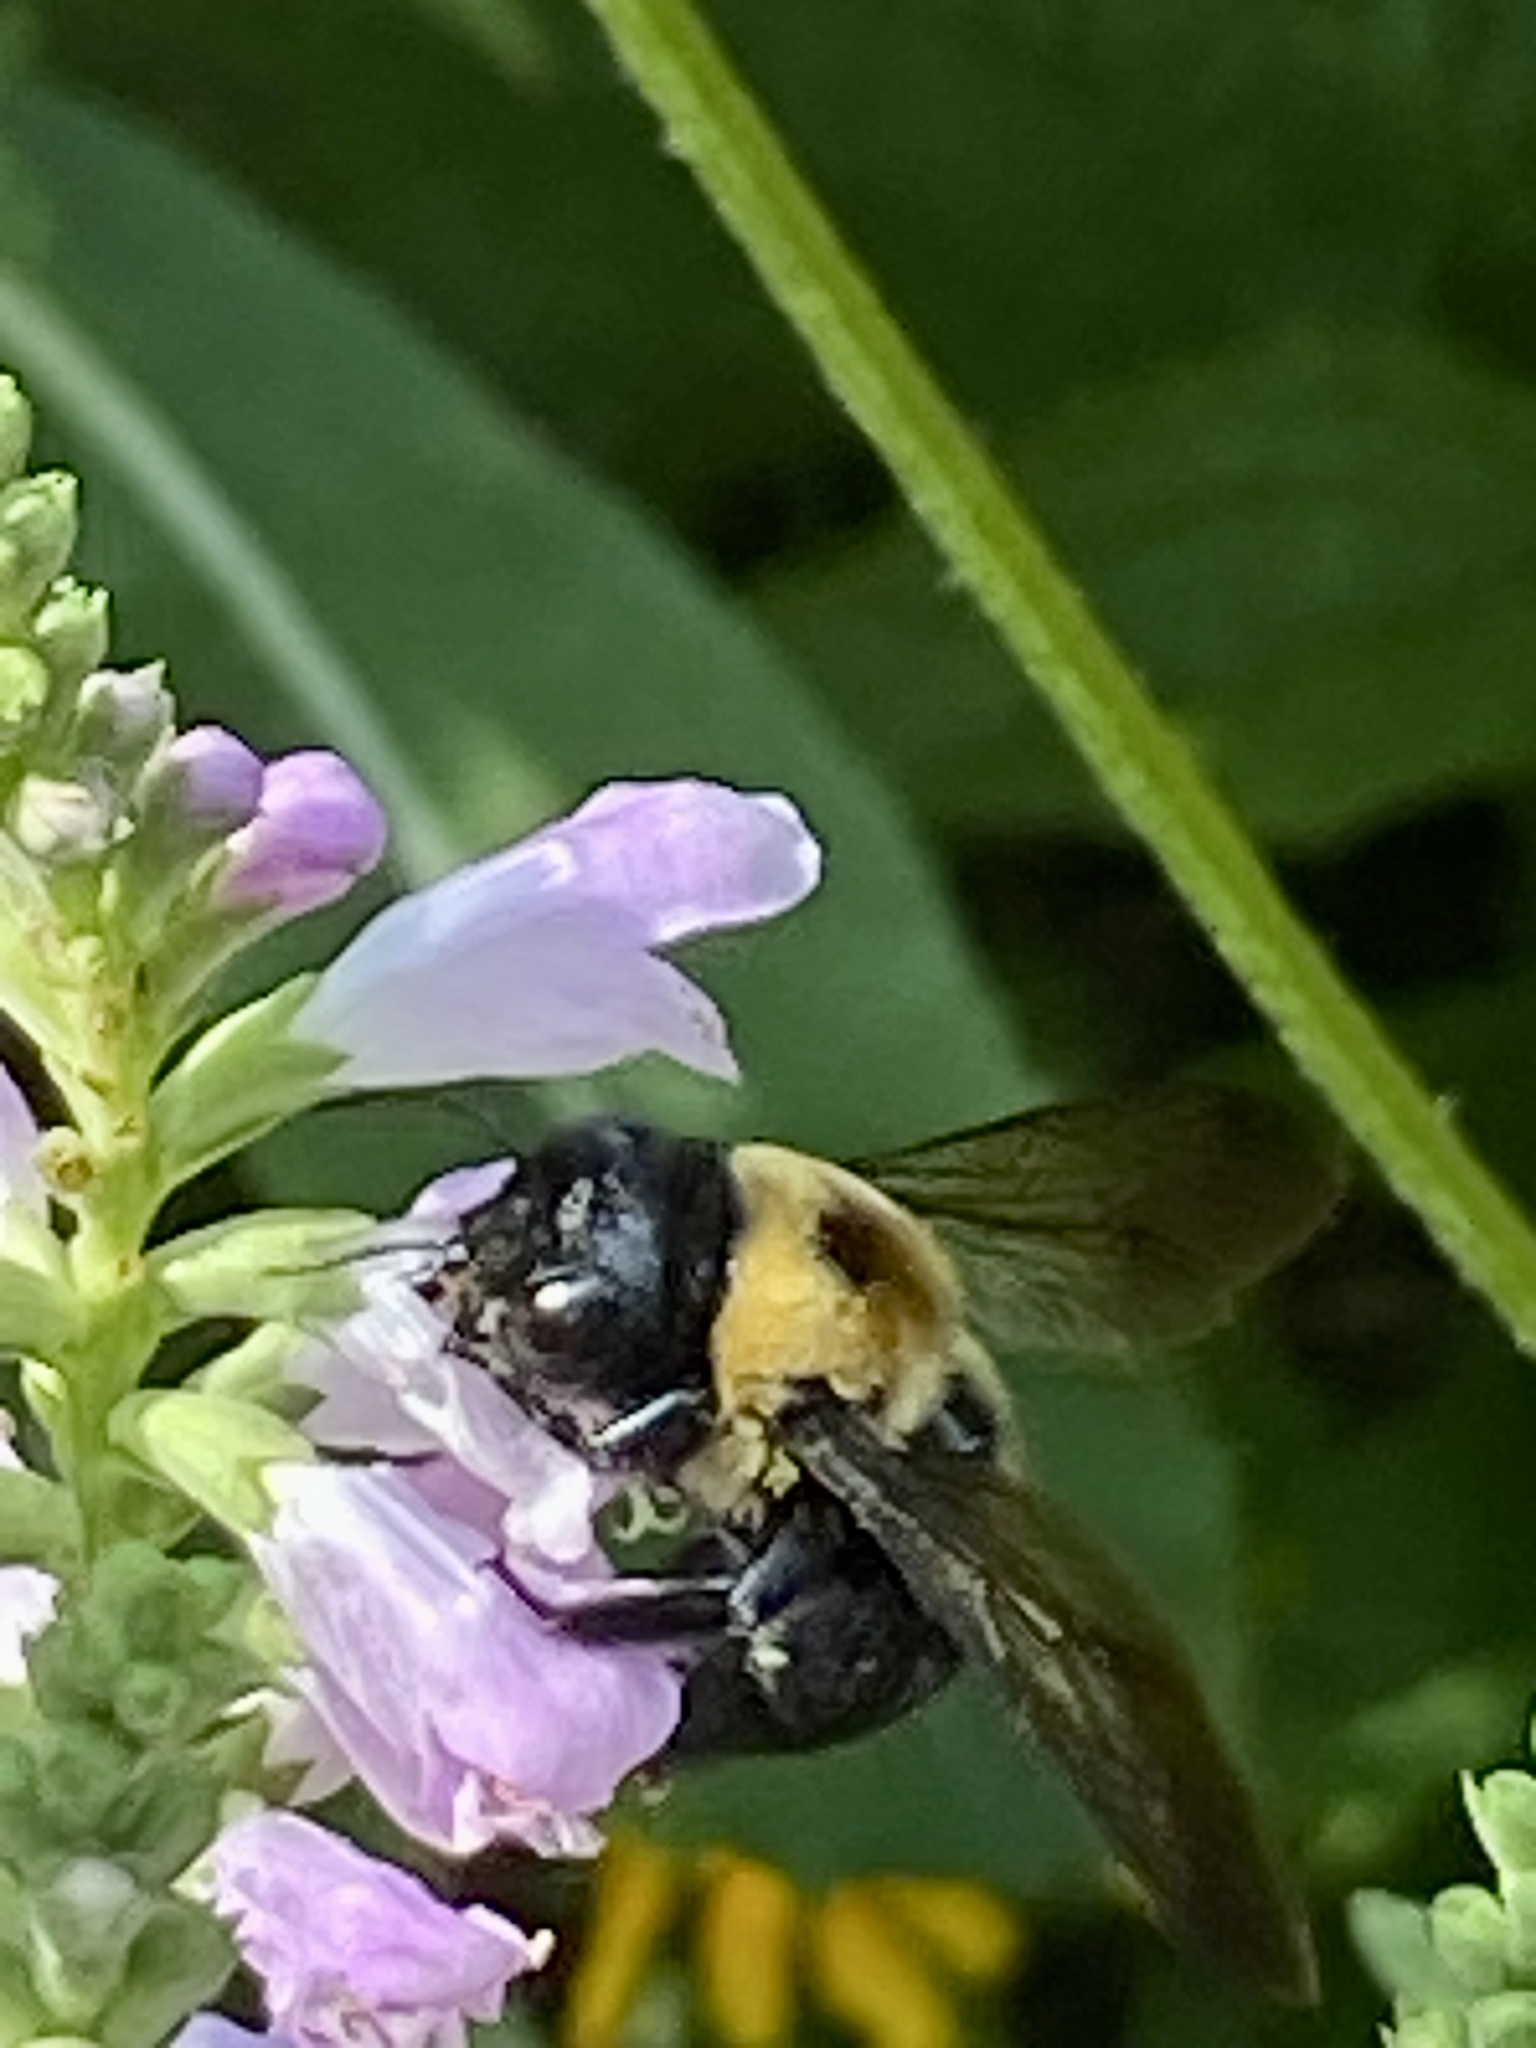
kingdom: Animalia
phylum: Arthropoda
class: Insecta
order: Hymenoptera
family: Apidae
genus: Xylocopa
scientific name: Xylocopa virginica
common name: Carpenter bee
